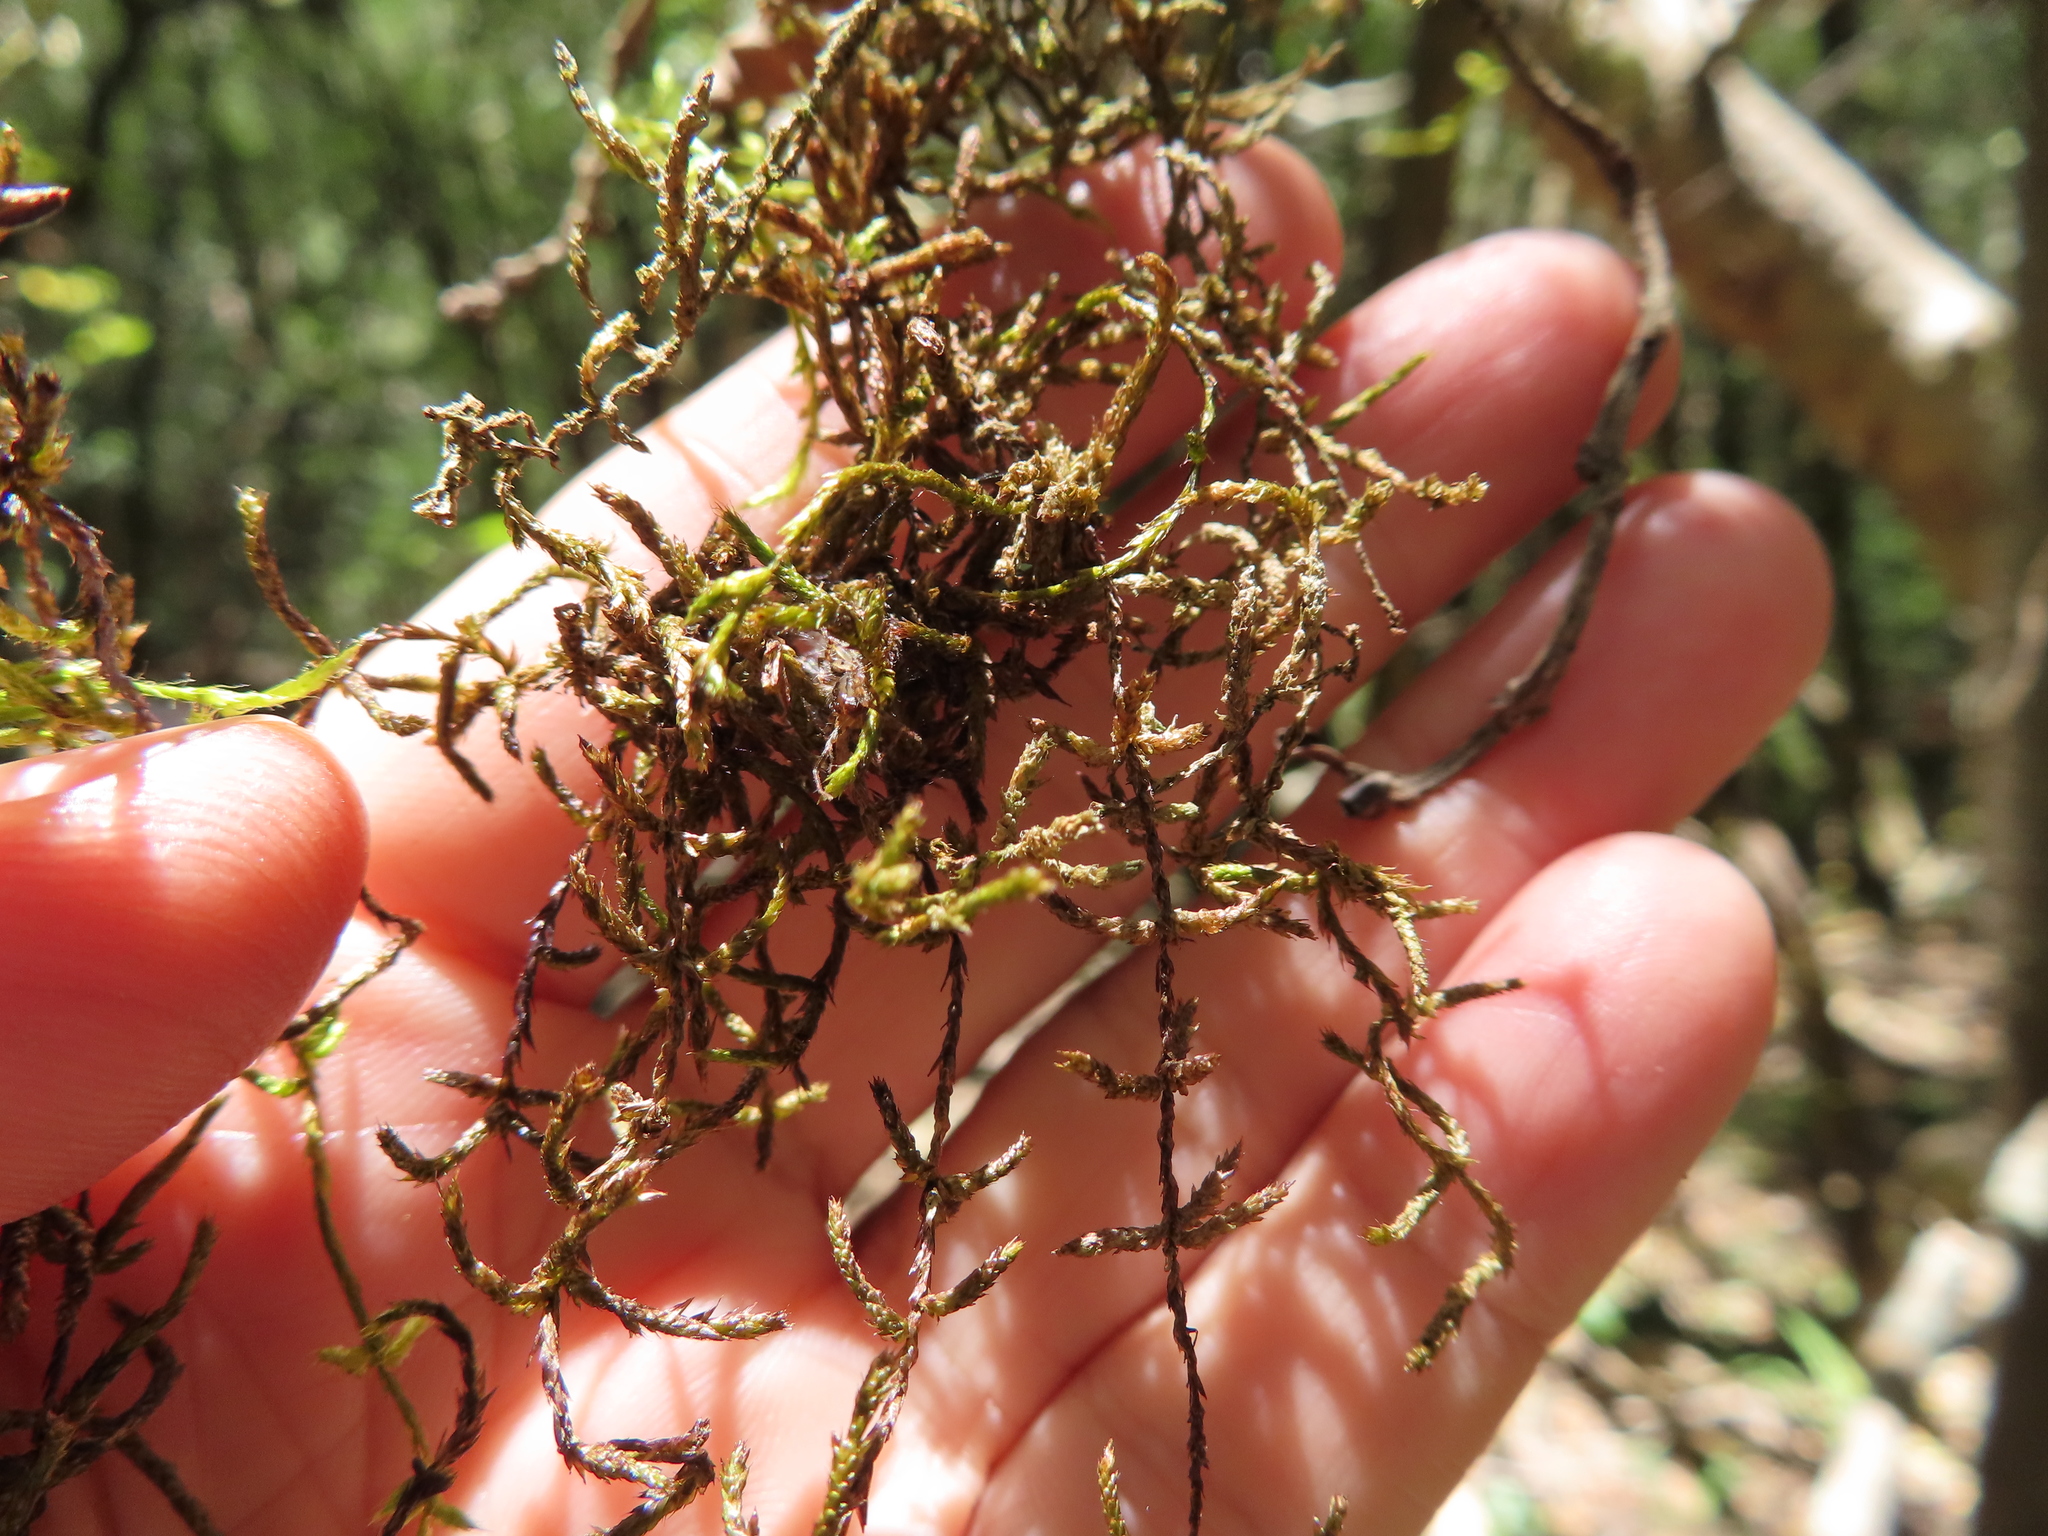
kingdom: Plantae
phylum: Bryophyta
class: Bryopsida
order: Hypnales
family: Brachytheciaceae
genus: Squamidium
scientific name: Squamidium brasiliense
